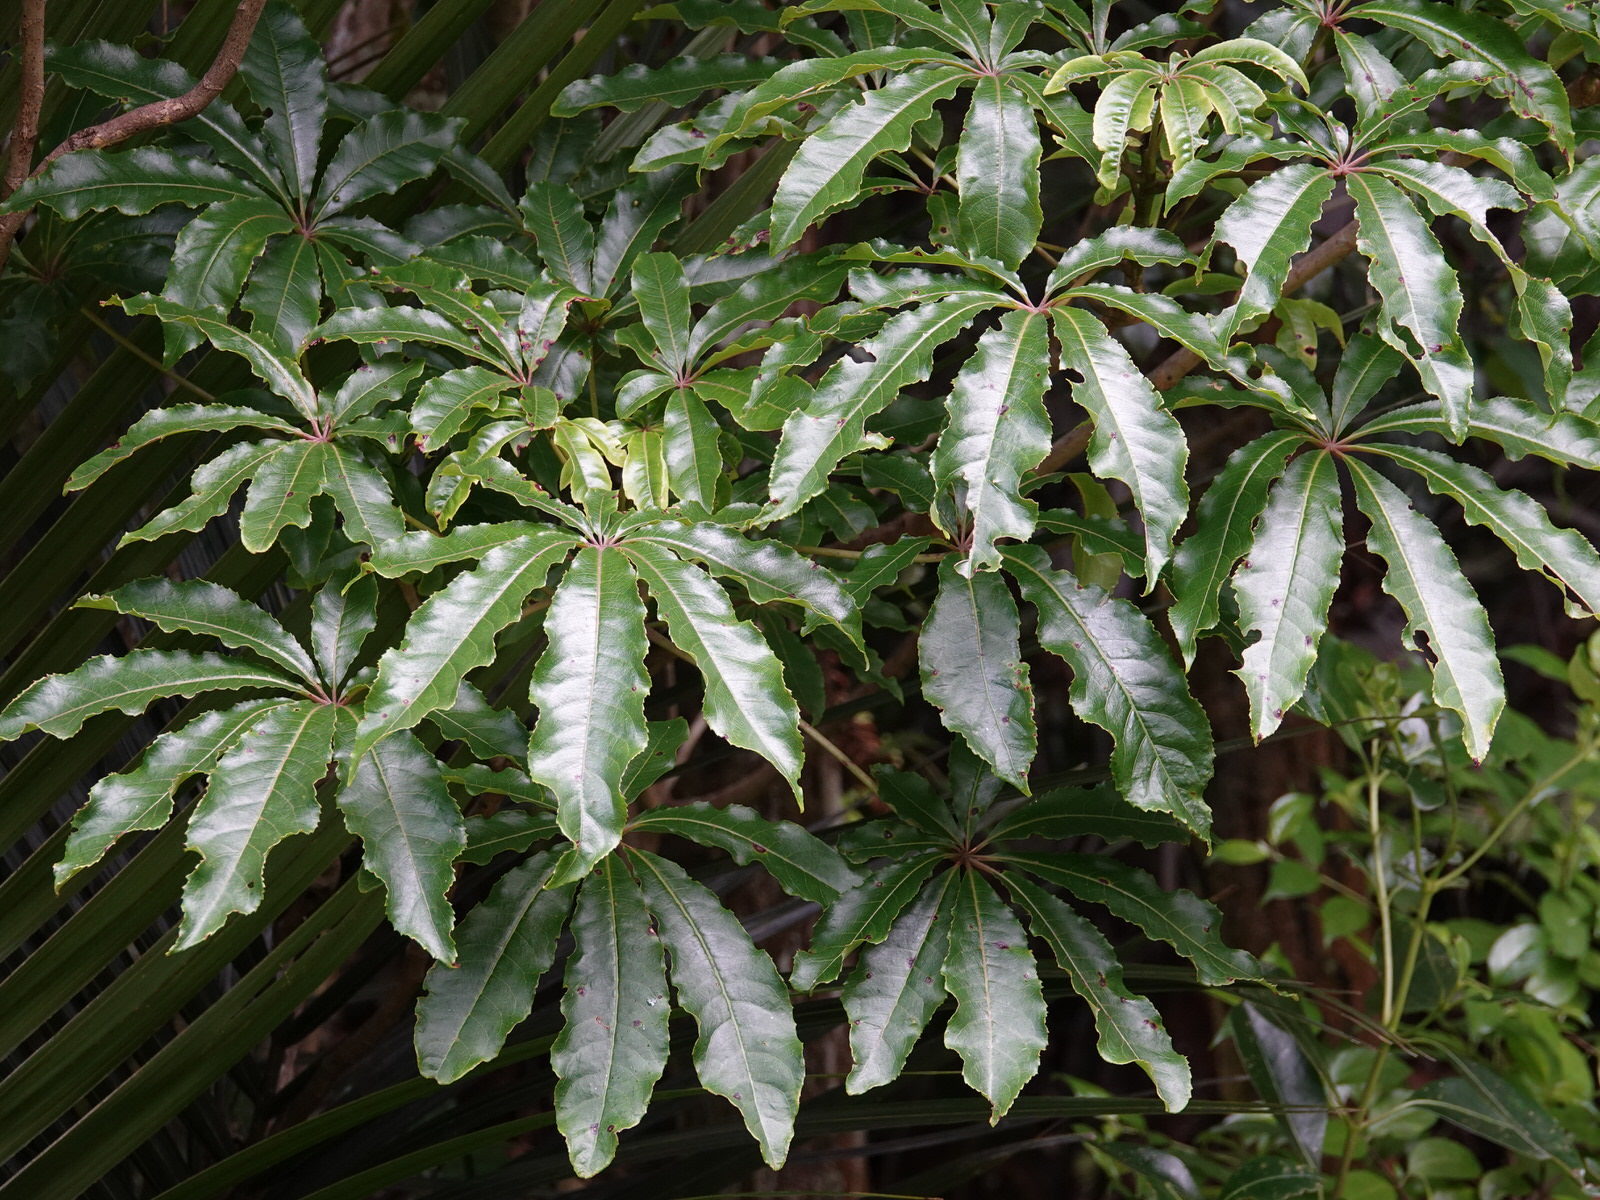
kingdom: Plantae
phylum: Tracheophyta
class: Magnoliopsida
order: Apiales
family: Araliaceae
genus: Schefflera
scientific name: Schefflera digitata
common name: Pate
